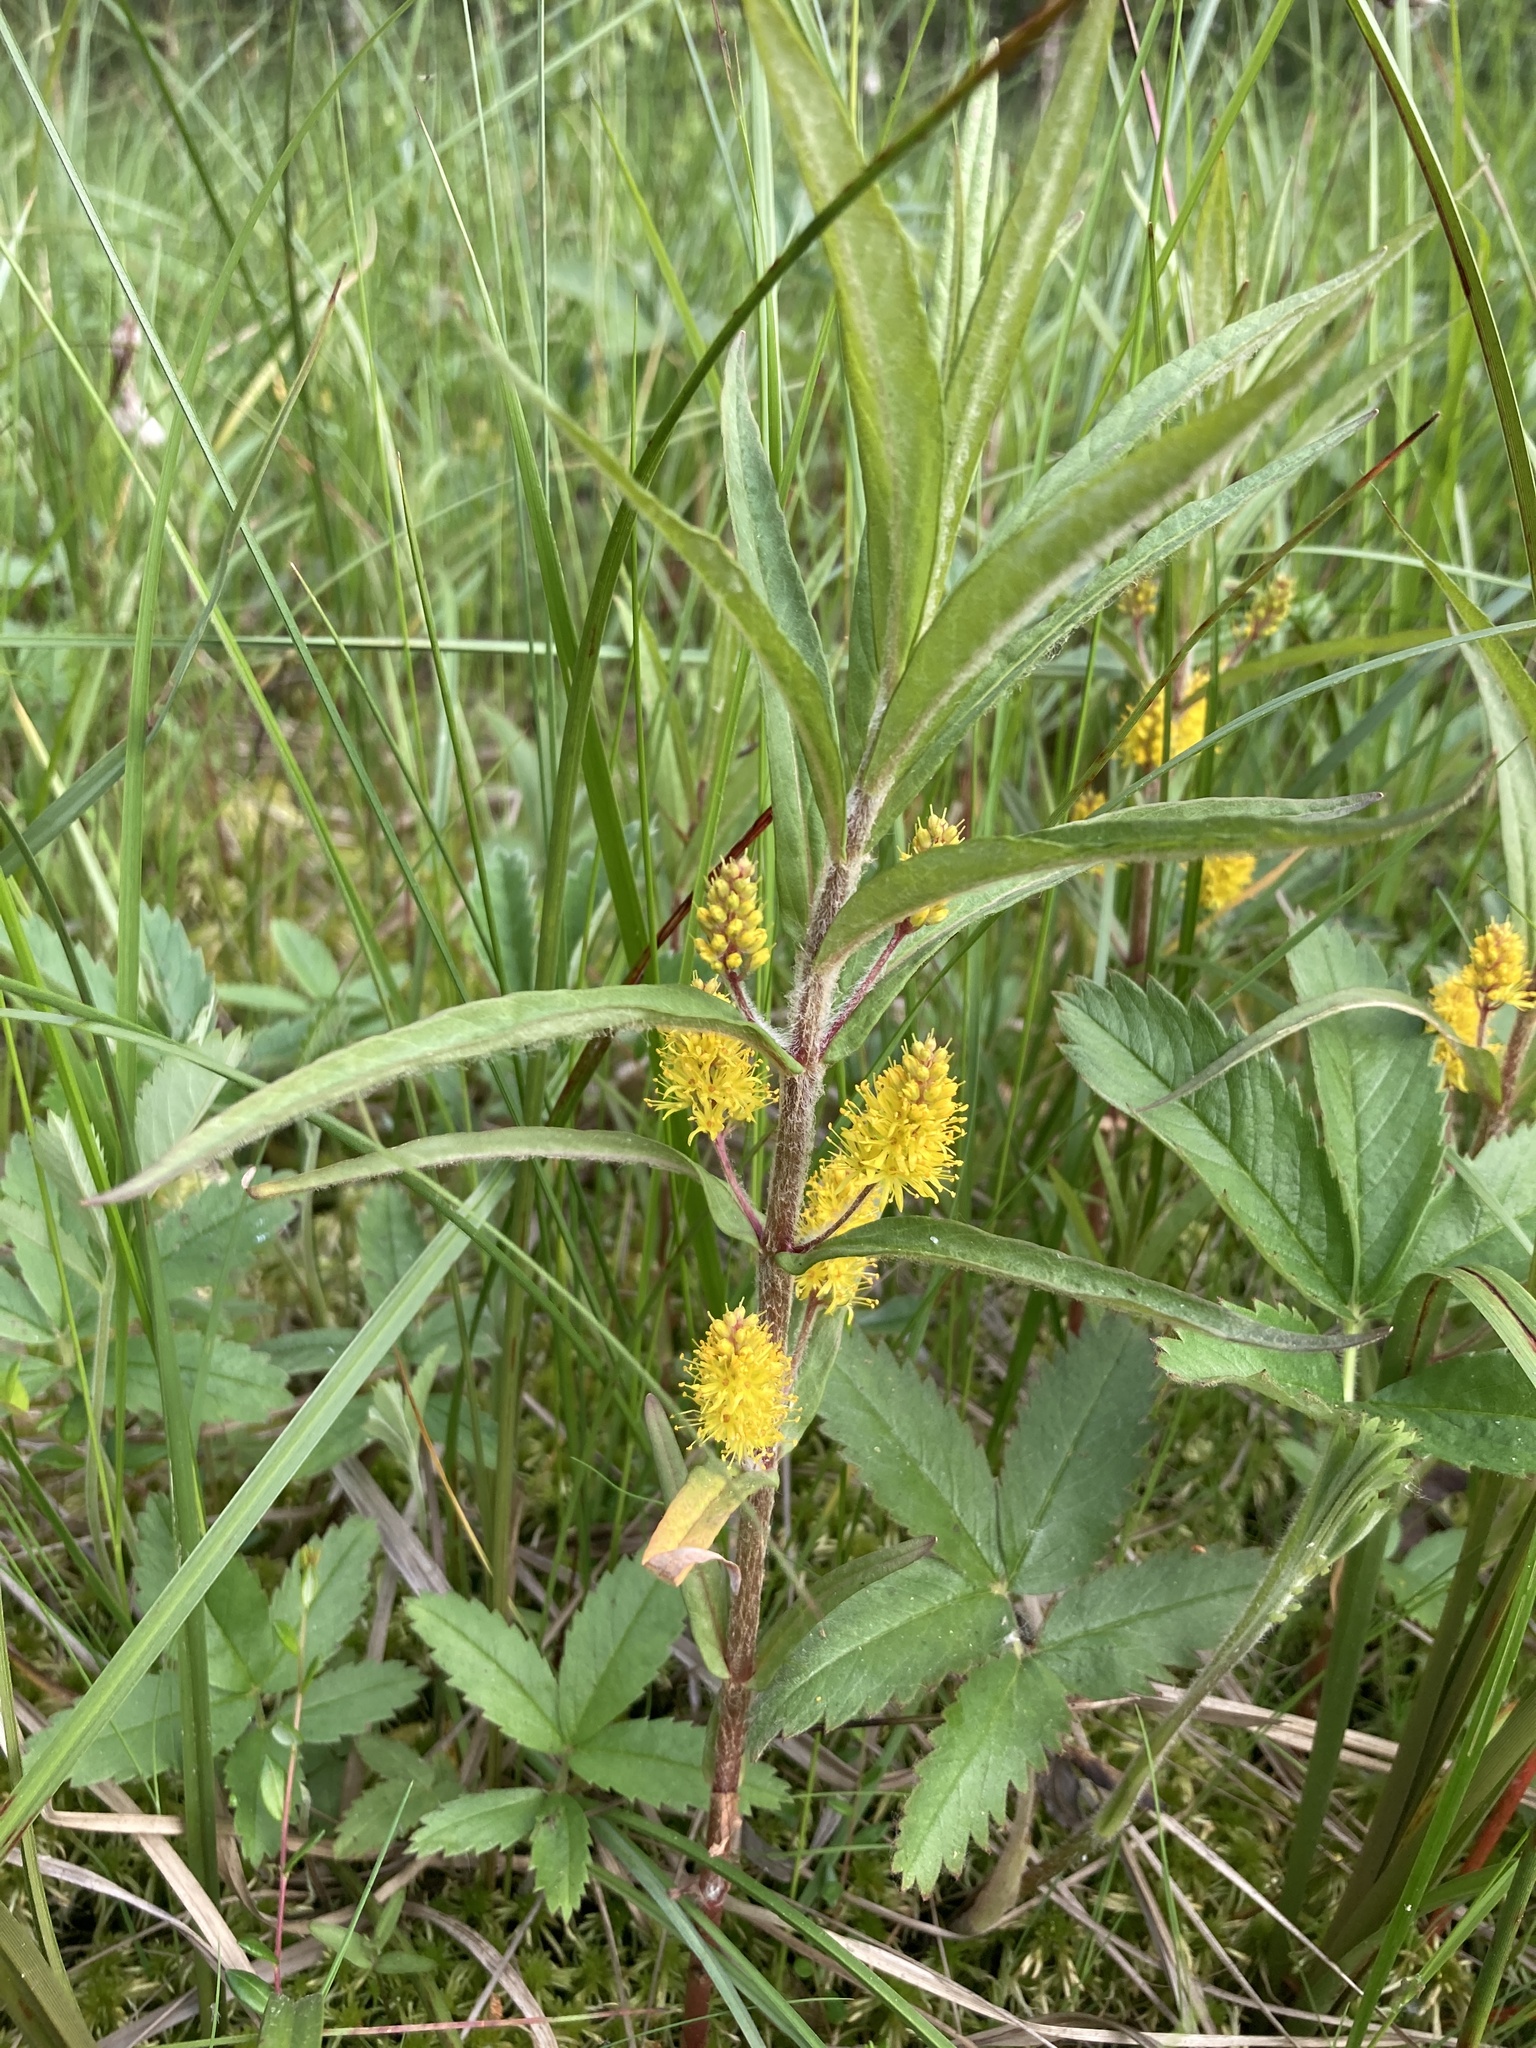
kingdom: Plantae
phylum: Tracheophyta
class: Magnoliopsida
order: Ericales
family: Primulaceae
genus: Lysimachia
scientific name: Lysimachia thyrsiflora
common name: Tufted loosestrife
